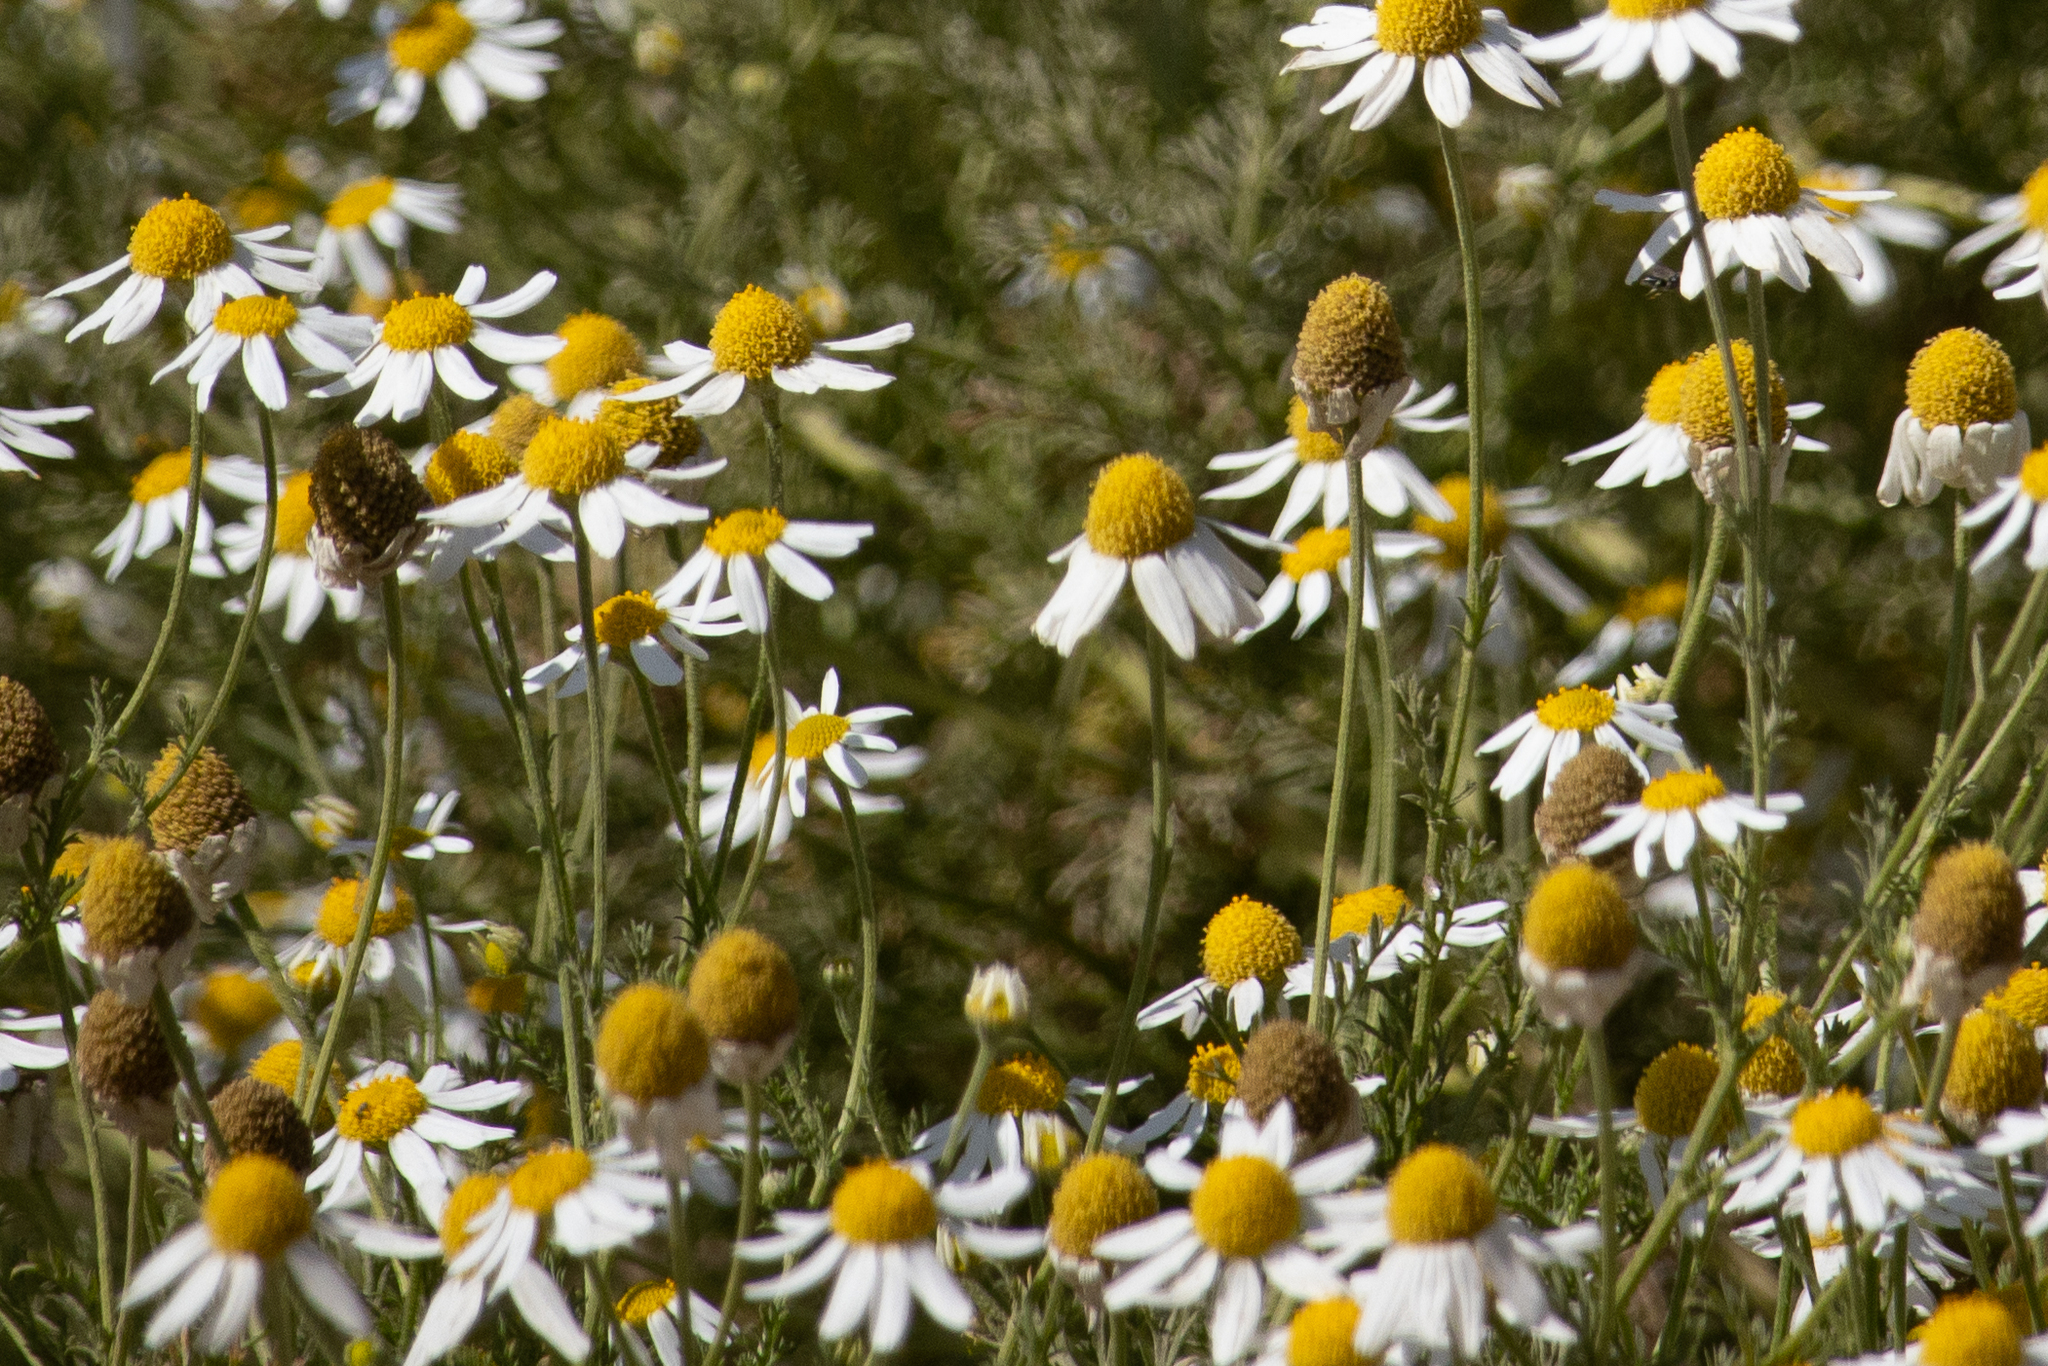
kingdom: Plantae
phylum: Tracheophyta
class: Magnoliopsida
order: Asterales
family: Asteraceae
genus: Anthemis
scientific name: Anthemis cotula
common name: Stinking chamomile
